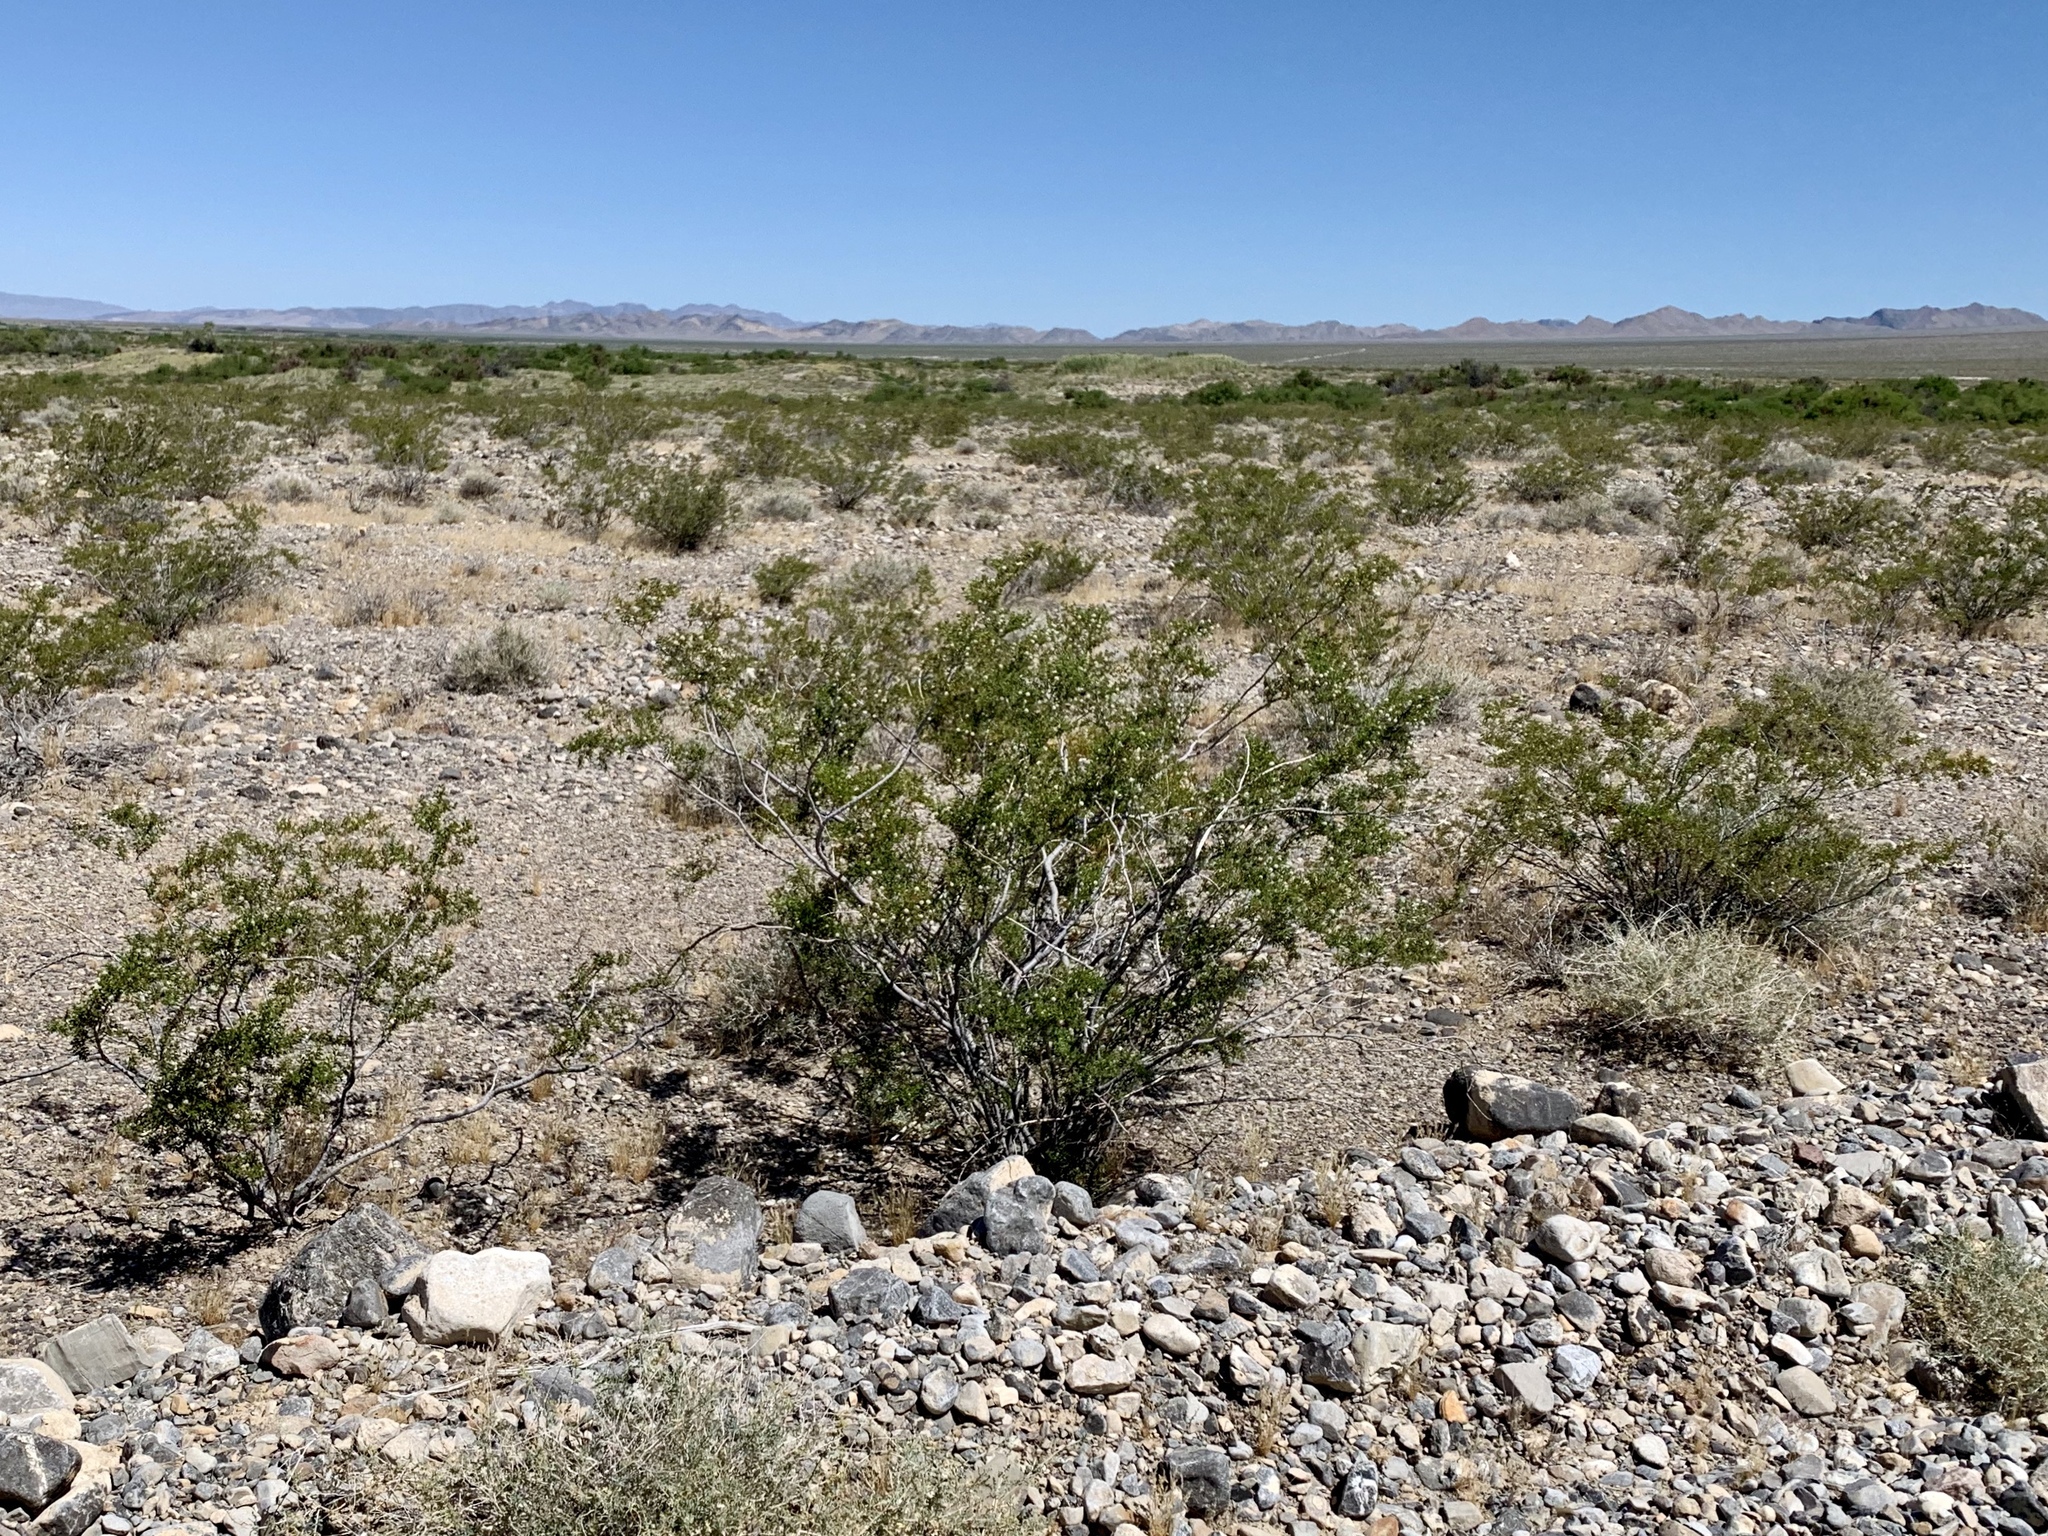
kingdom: Plantae
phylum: Tracheophyta
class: Magnoliopsida
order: Zygophyllales
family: Zygophyllaceae
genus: Larrea
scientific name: Larrea tridentata
